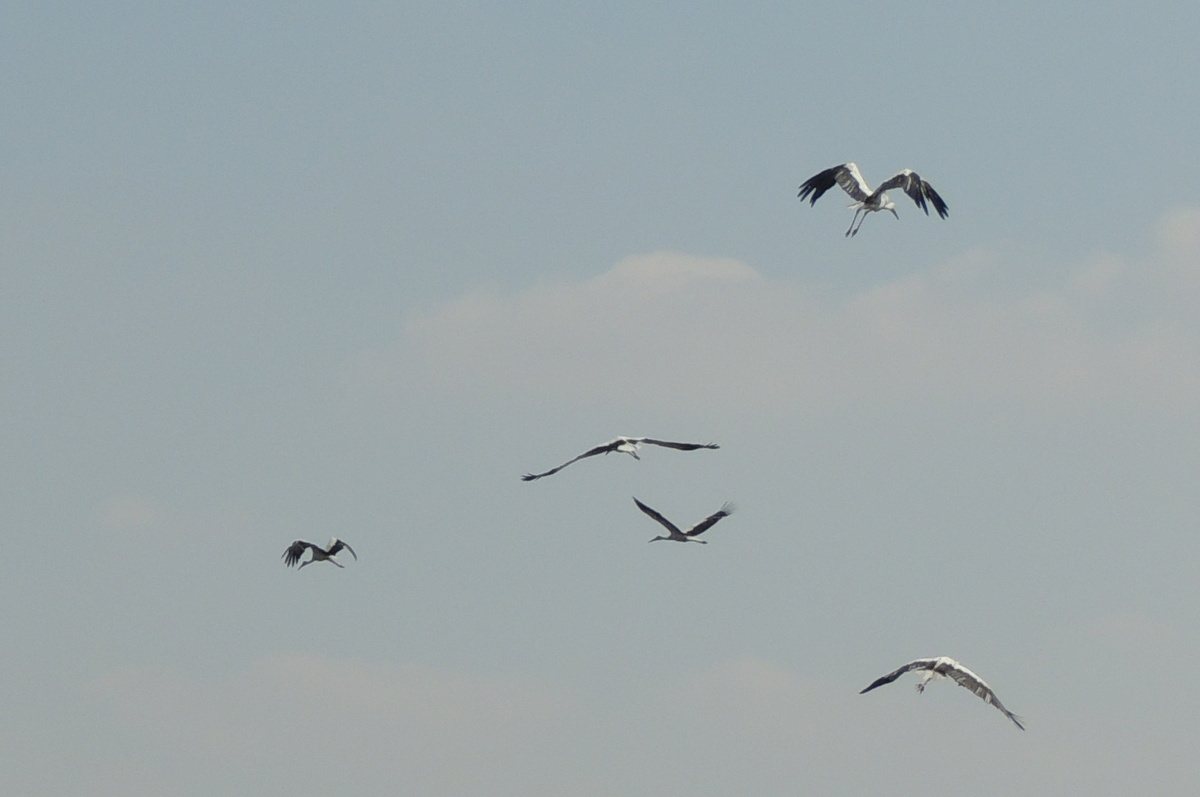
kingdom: Animalia
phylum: Chordata
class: Aves
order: Ciconiiformes
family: Ciconiidae
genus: Ciconia
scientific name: Ciconia ciconia
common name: White stork
